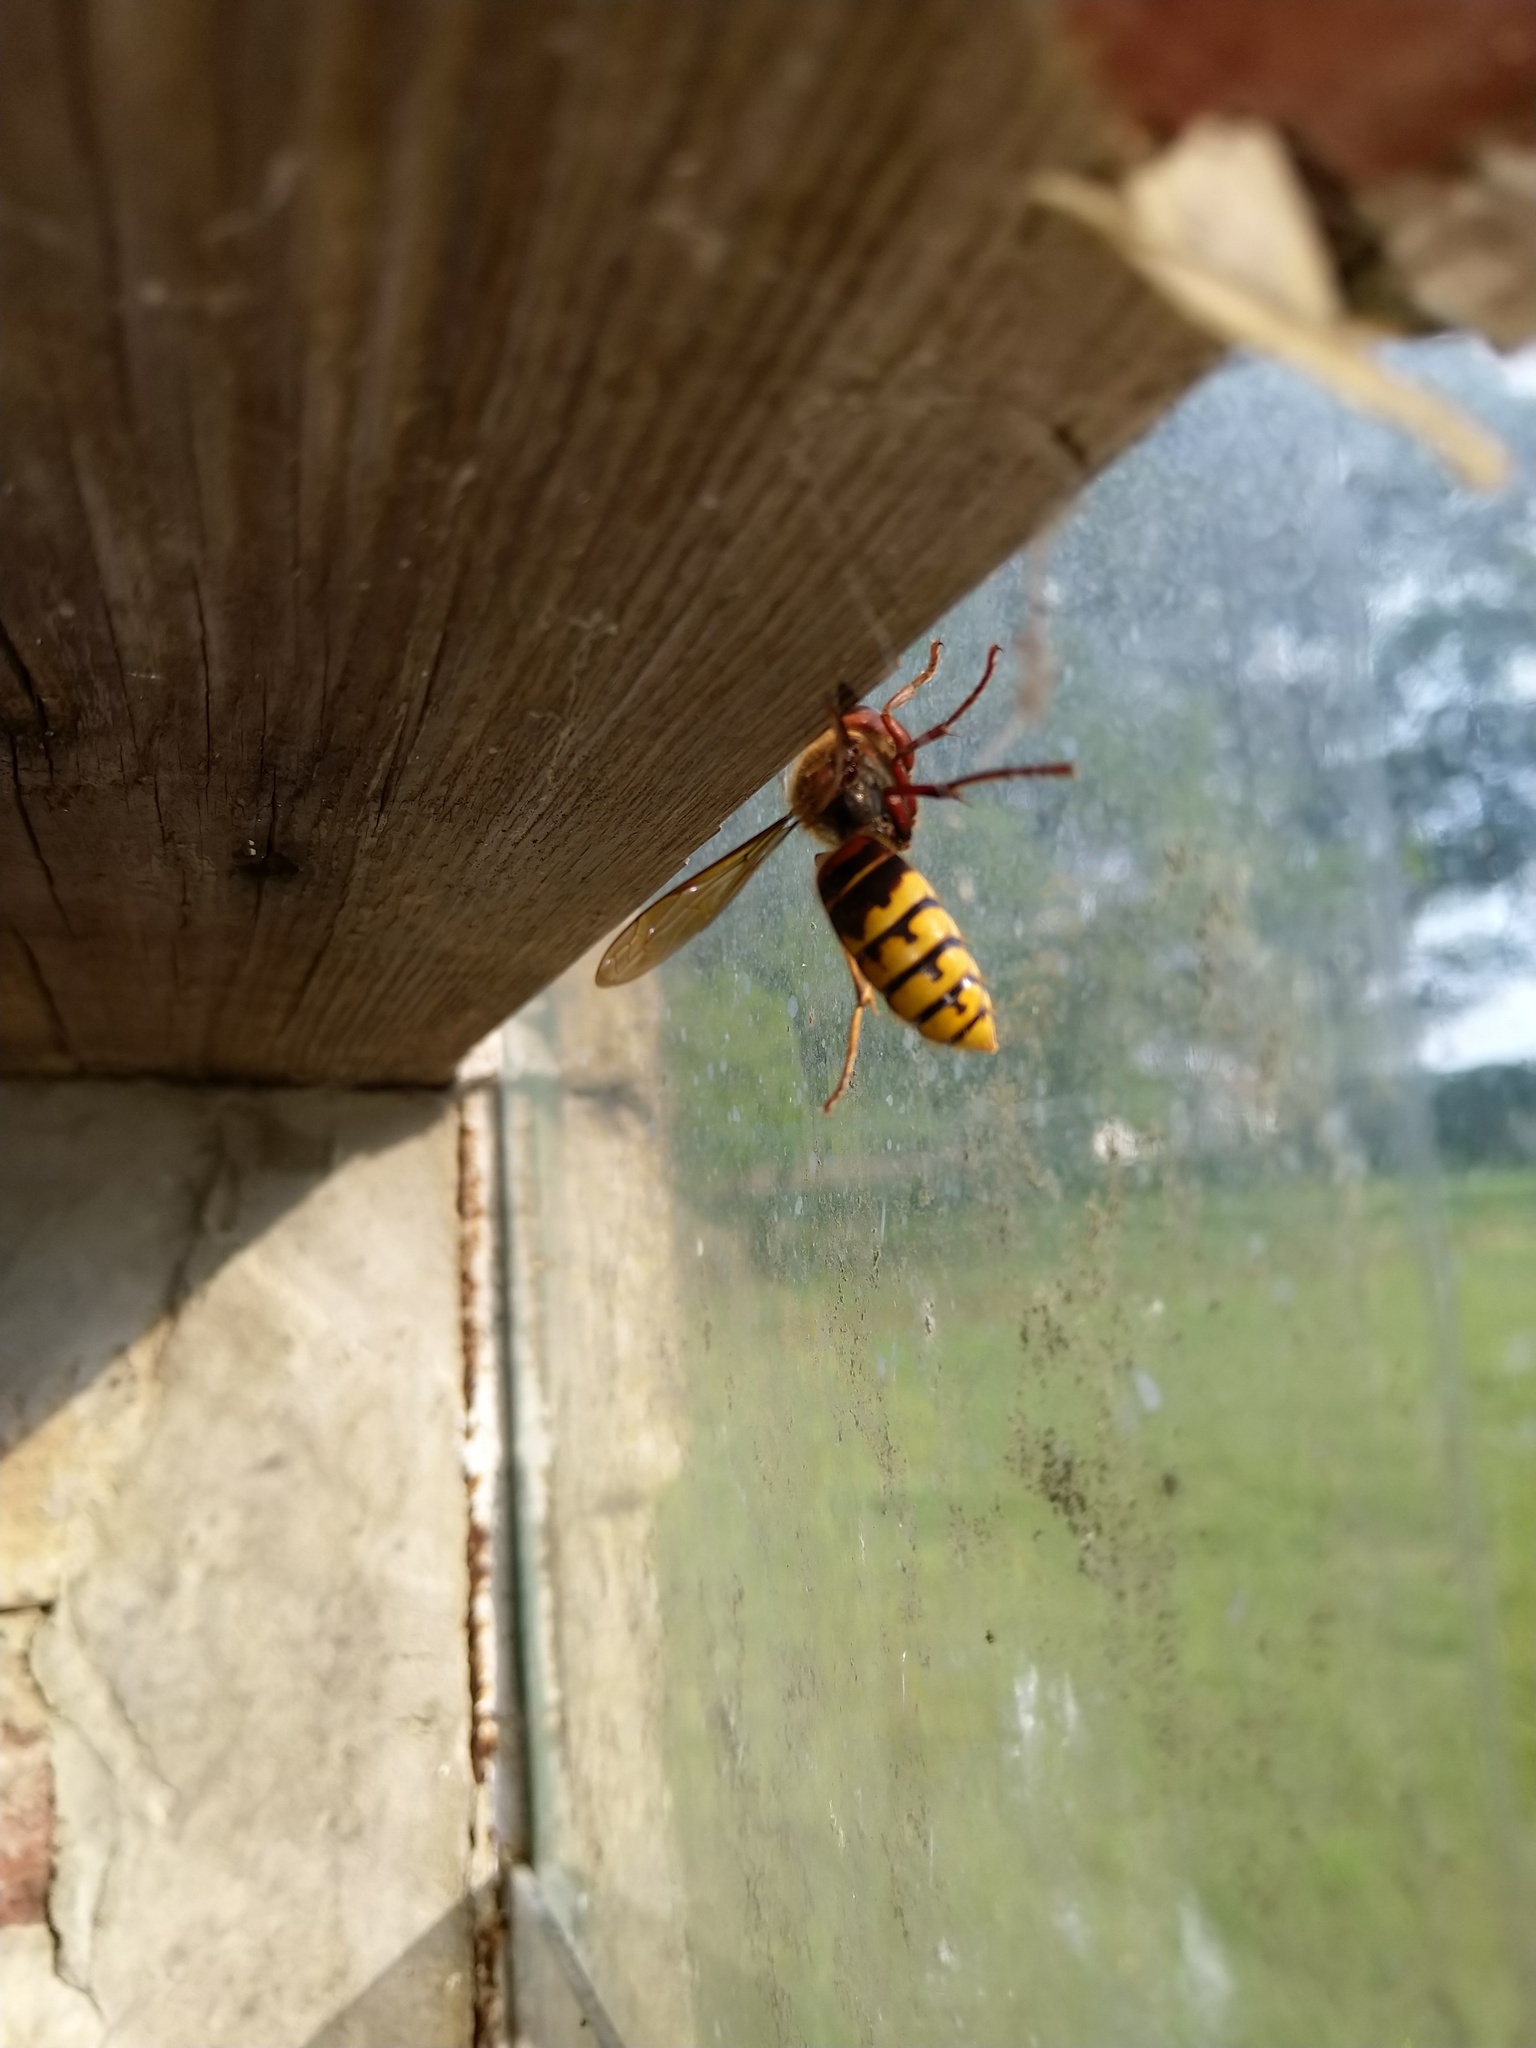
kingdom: Animalia
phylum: Arthropoda
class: Insecta
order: Hymenoptera
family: Vespidae
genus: Vespa
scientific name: Vespa crabro
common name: Hornet
